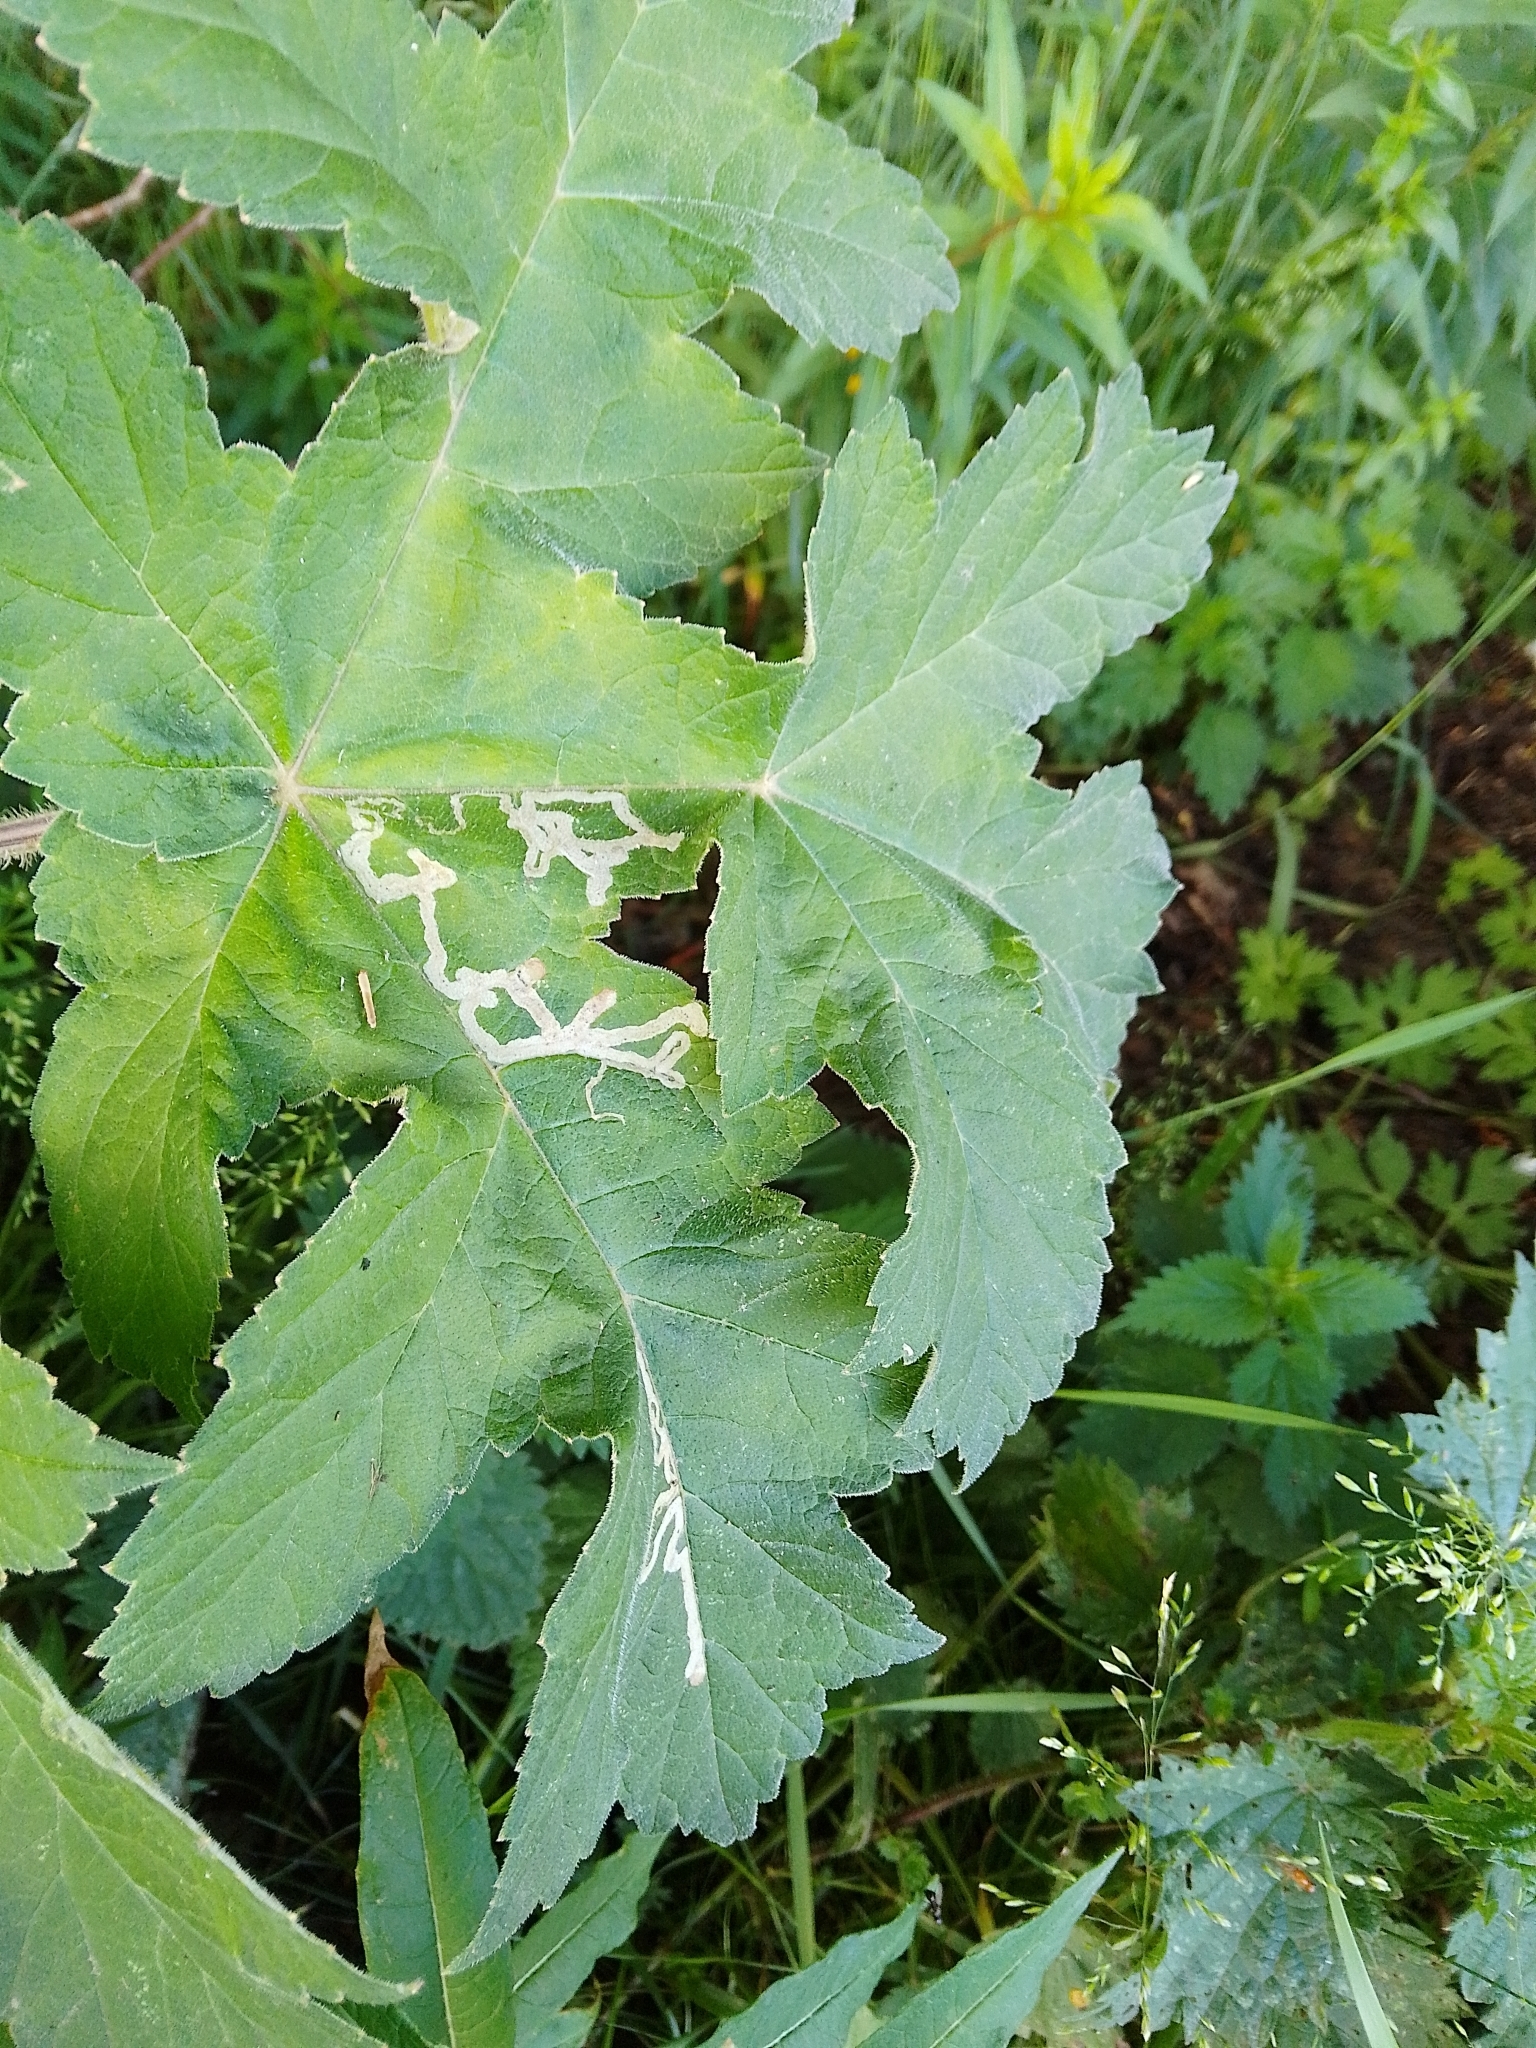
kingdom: Animalia
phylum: Arthropoda
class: Insecta
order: Diptera
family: Agromyzidae
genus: Phytomyza
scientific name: Phytomyza
